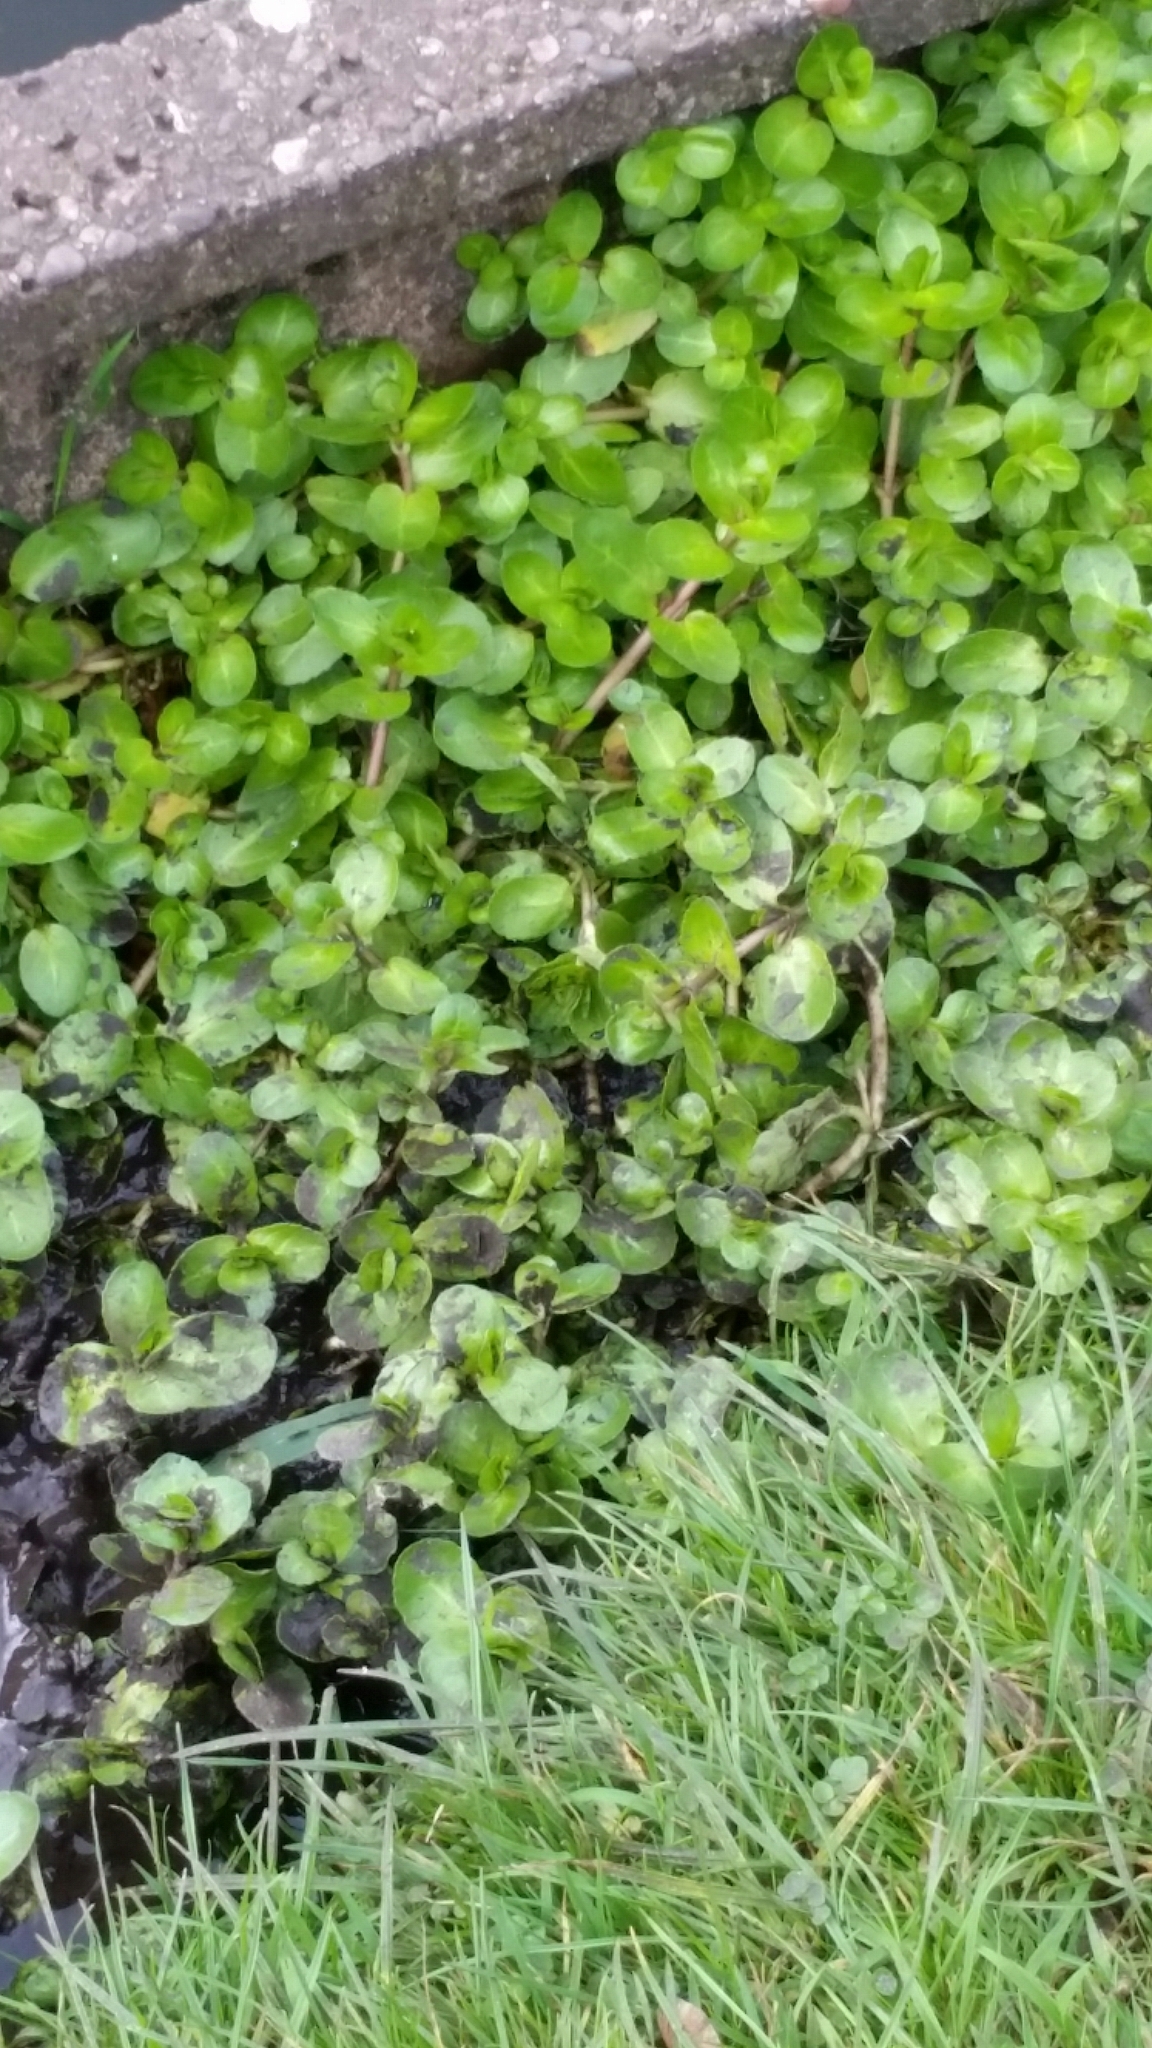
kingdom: Plantae
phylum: Tracheophyta
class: Magnoliopsida
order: Lamiales
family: Plantaginaceae
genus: Veronica
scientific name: Veronica beccabunga
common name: Brooklime
